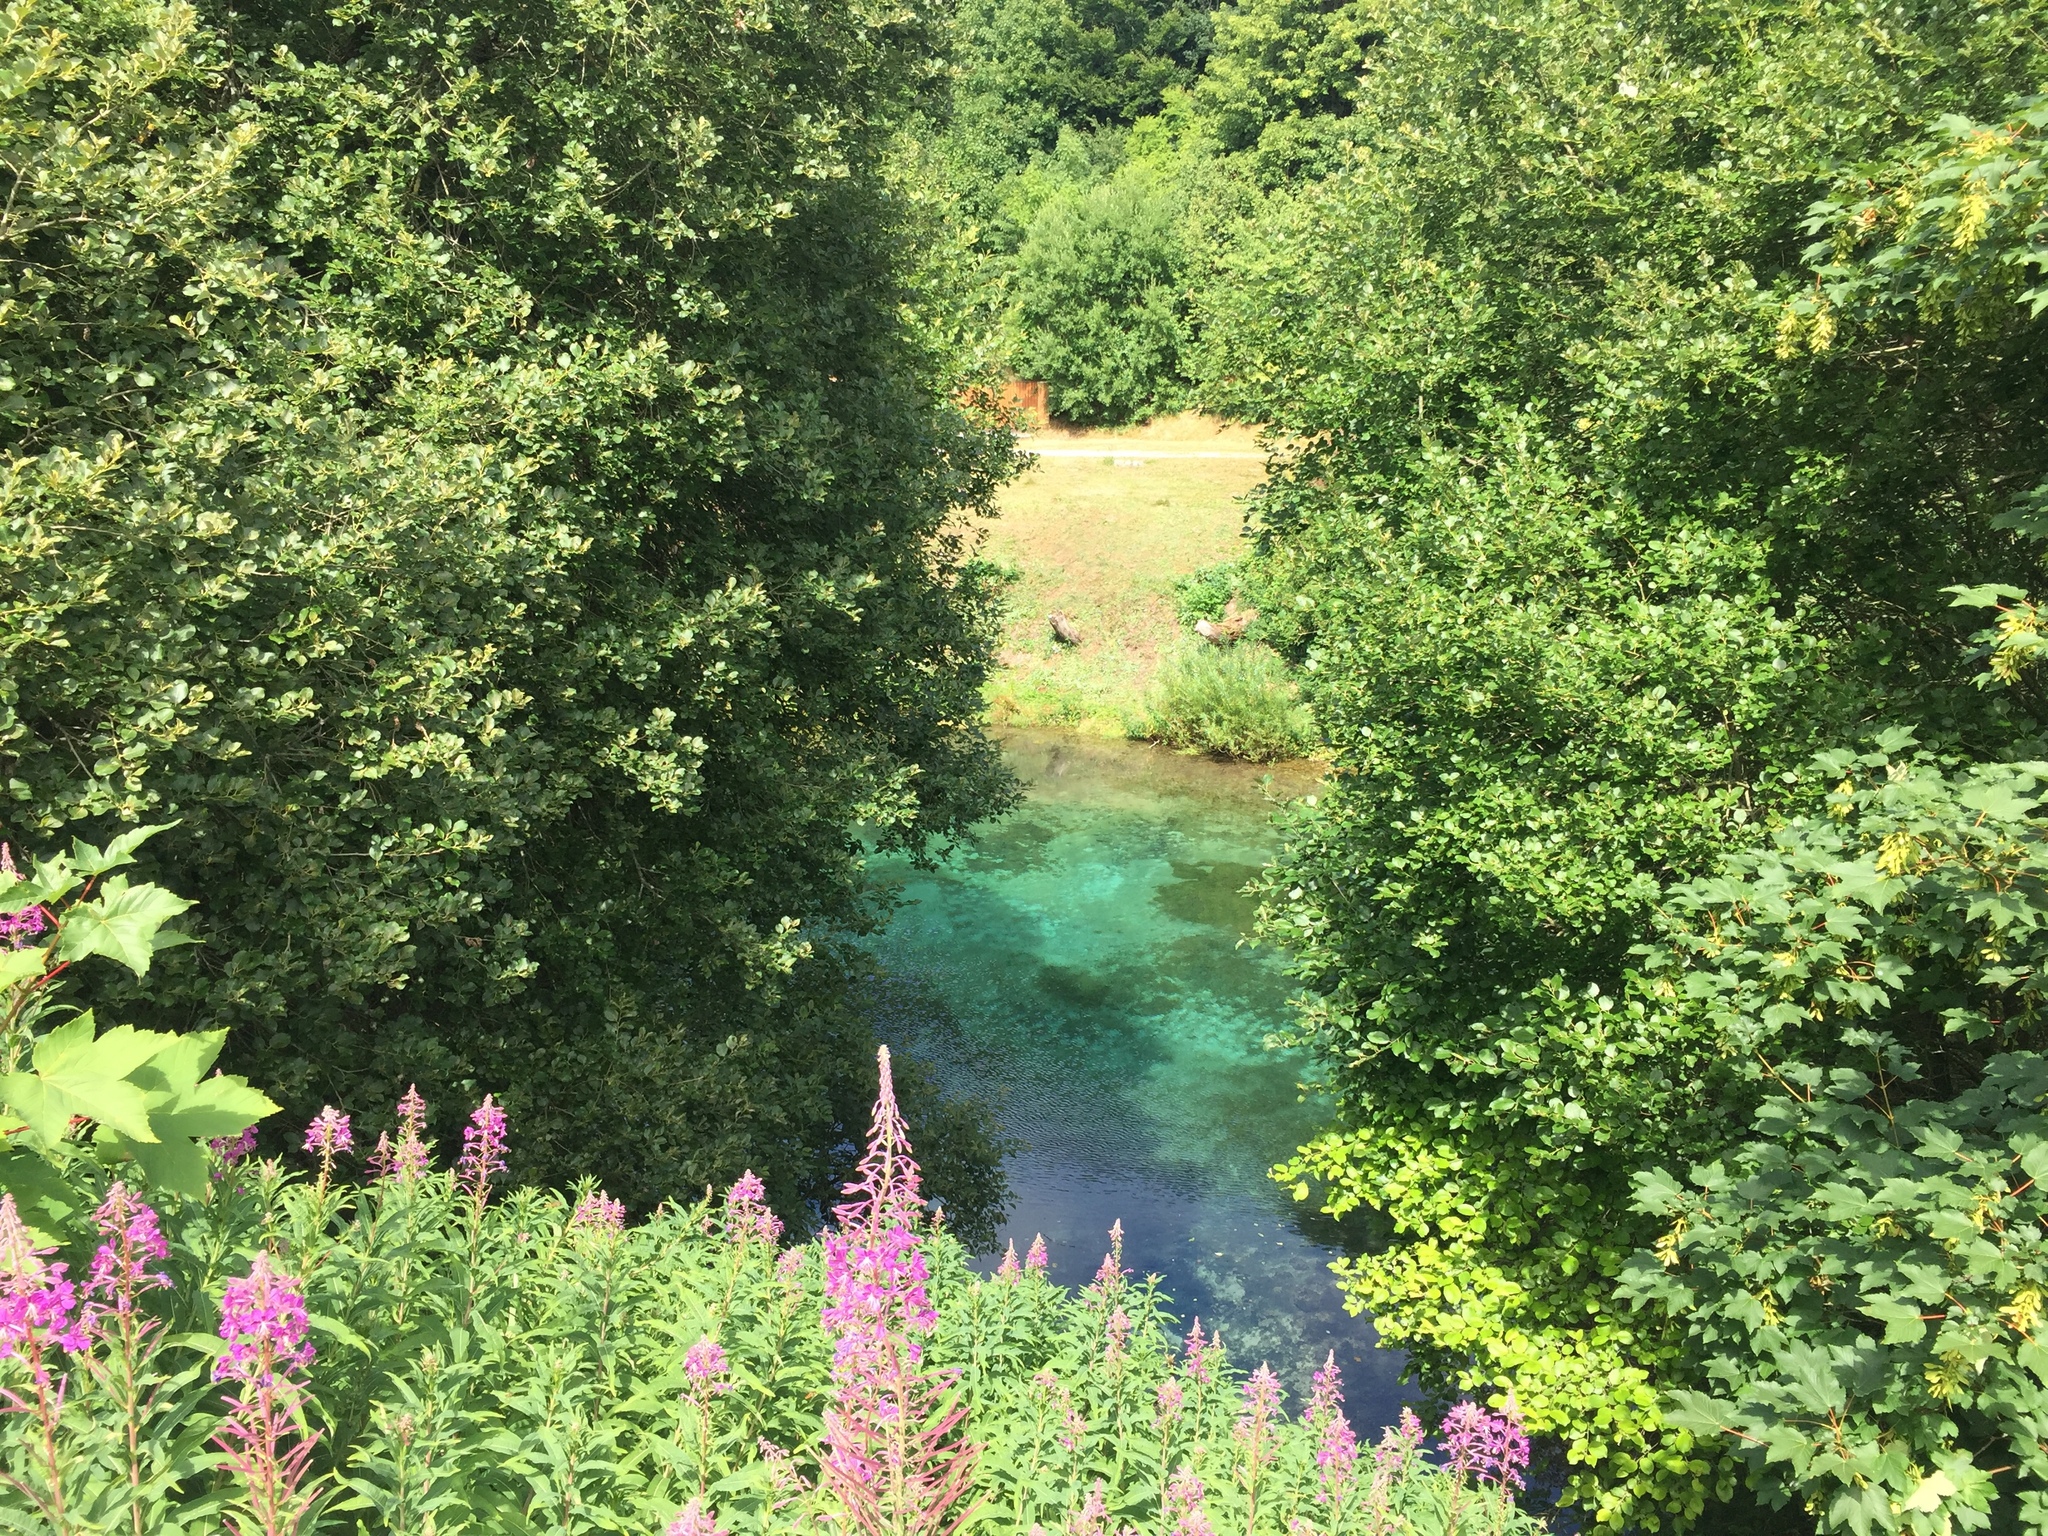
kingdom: Plantae
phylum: Tracheophyta
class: Magnoliopsida
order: Myrtales
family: Onagraceae
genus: Chamaenerion
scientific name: Chamaenerion angustifolium
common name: Fireweed
